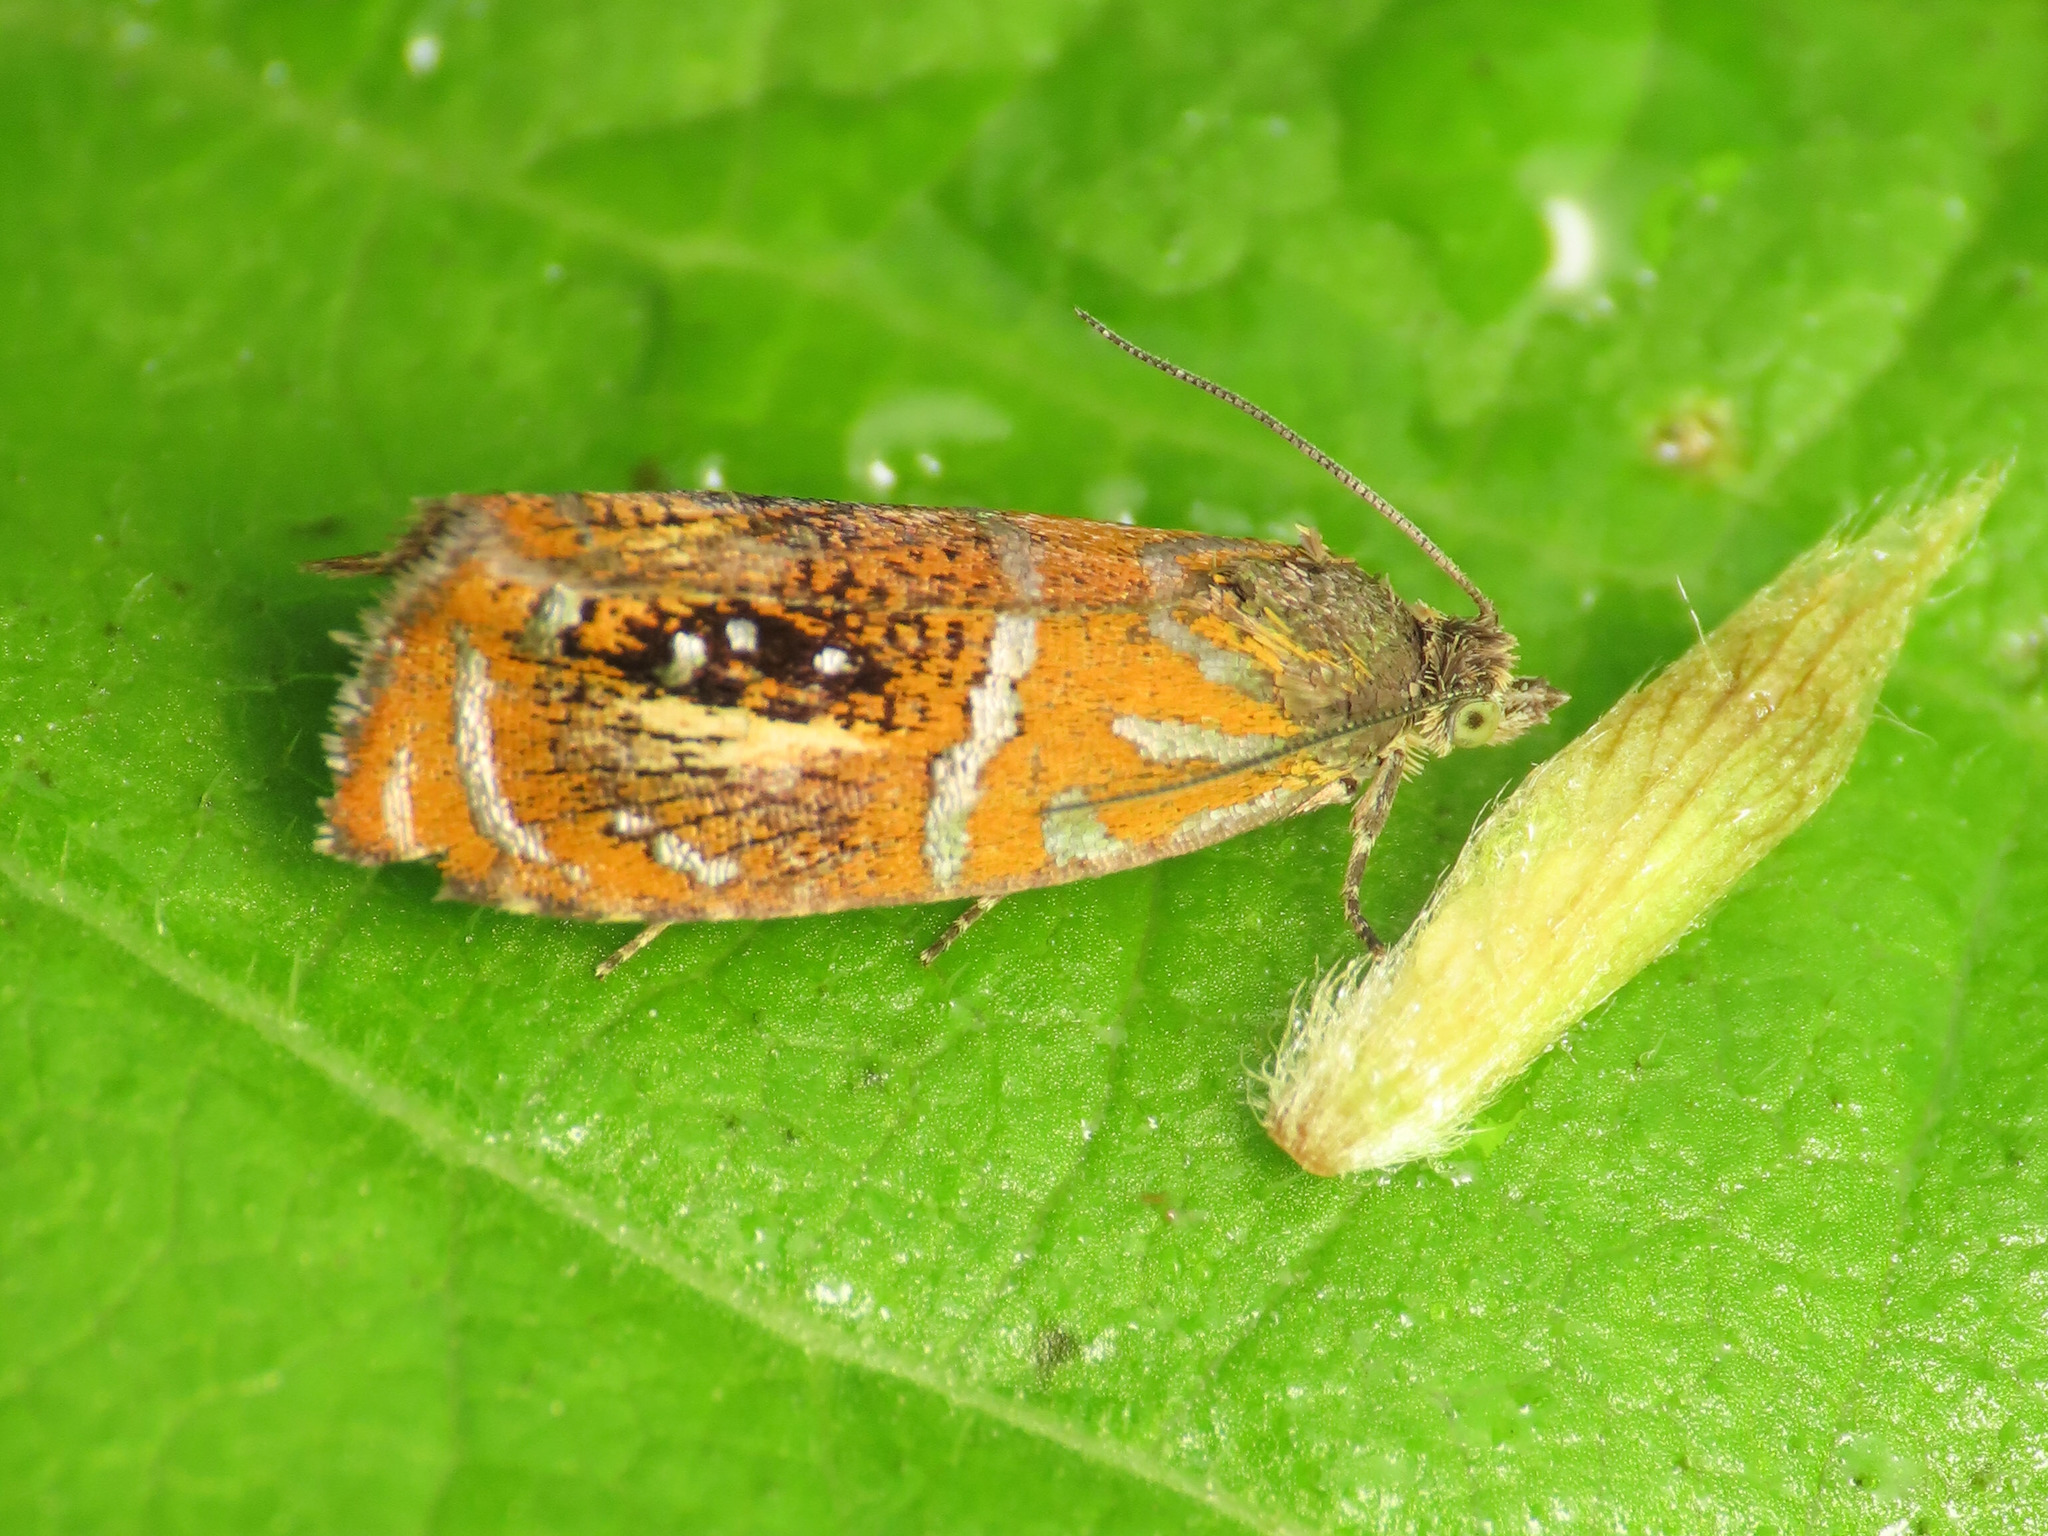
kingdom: Animalia
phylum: Arthropoda
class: Insecta
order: Lepidoptera
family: Tortricidae
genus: Olethreutes
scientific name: Olethreutes arcuella
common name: Arched marble
